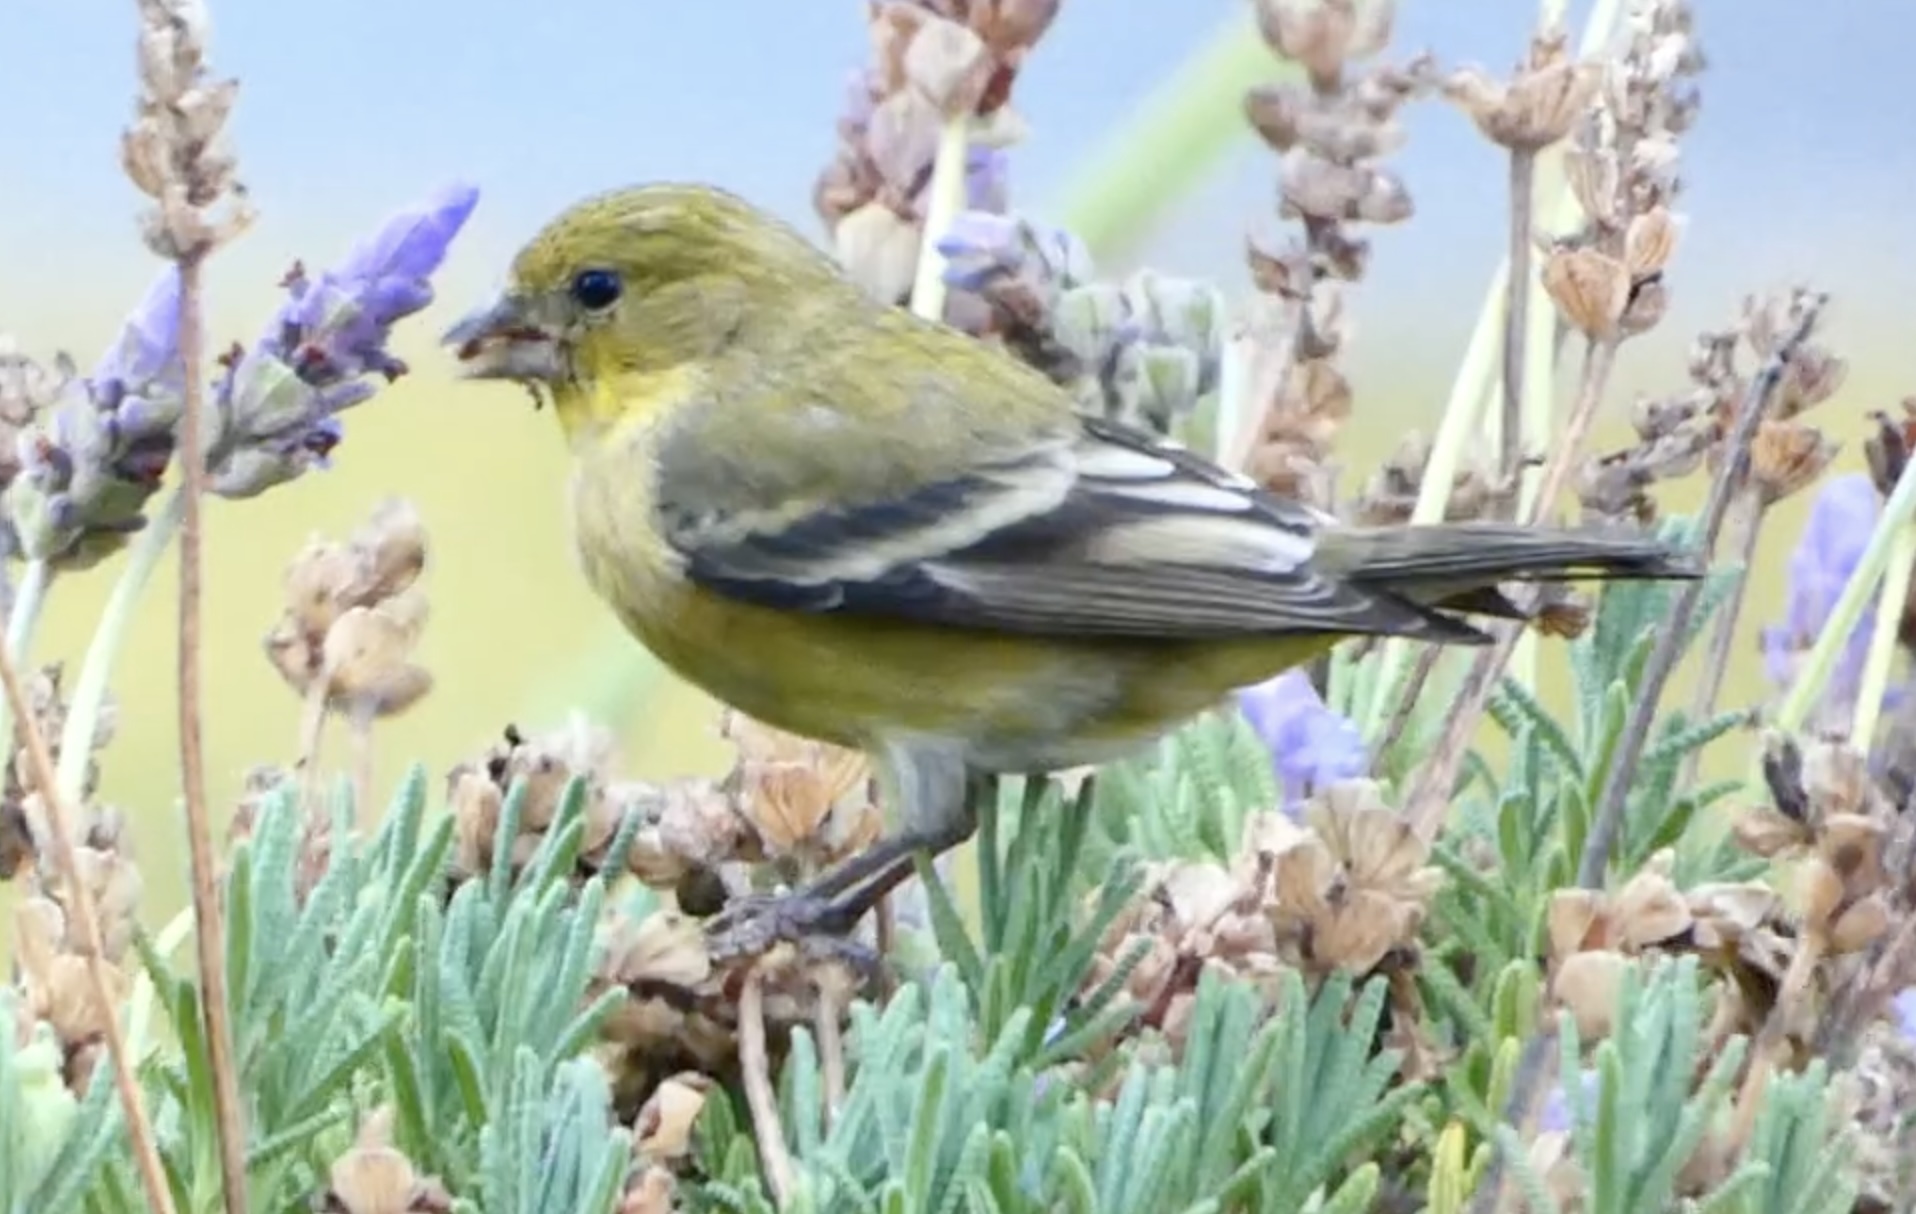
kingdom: Animalia
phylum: Chordata
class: Aves
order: Passeriformes
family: Fringillidae
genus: Spinus
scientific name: Spinus psaltria
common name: Lesser goldfinch
